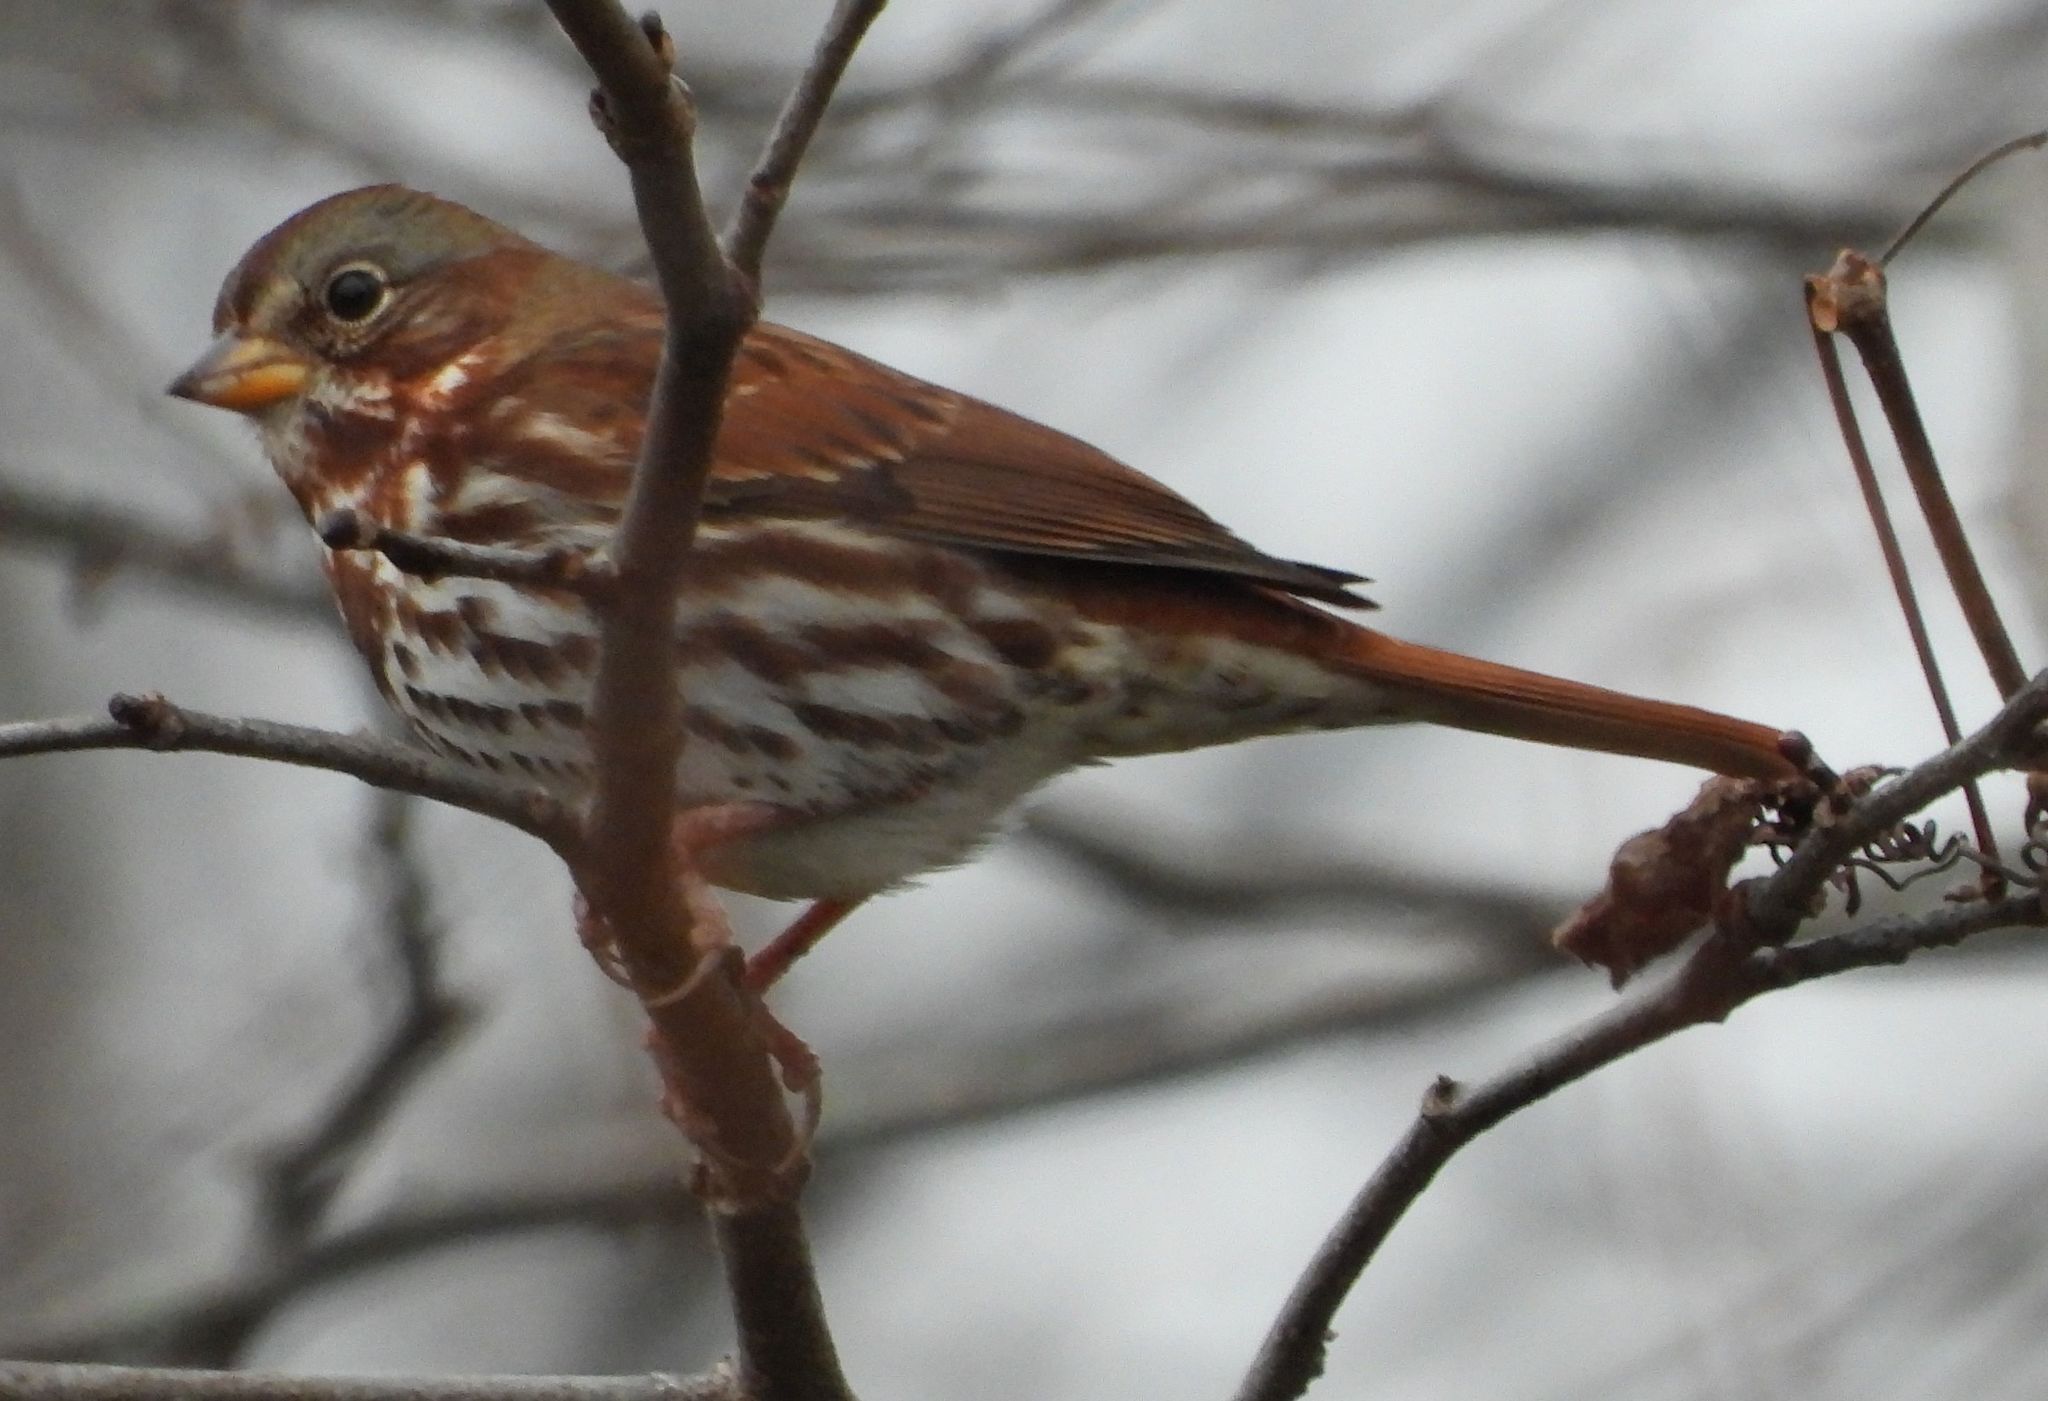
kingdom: Animalia
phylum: Chordata
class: Aves
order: Passeriformes
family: Passerellidae
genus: Passerella
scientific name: Passerella iliaca
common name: Fox sparrow
